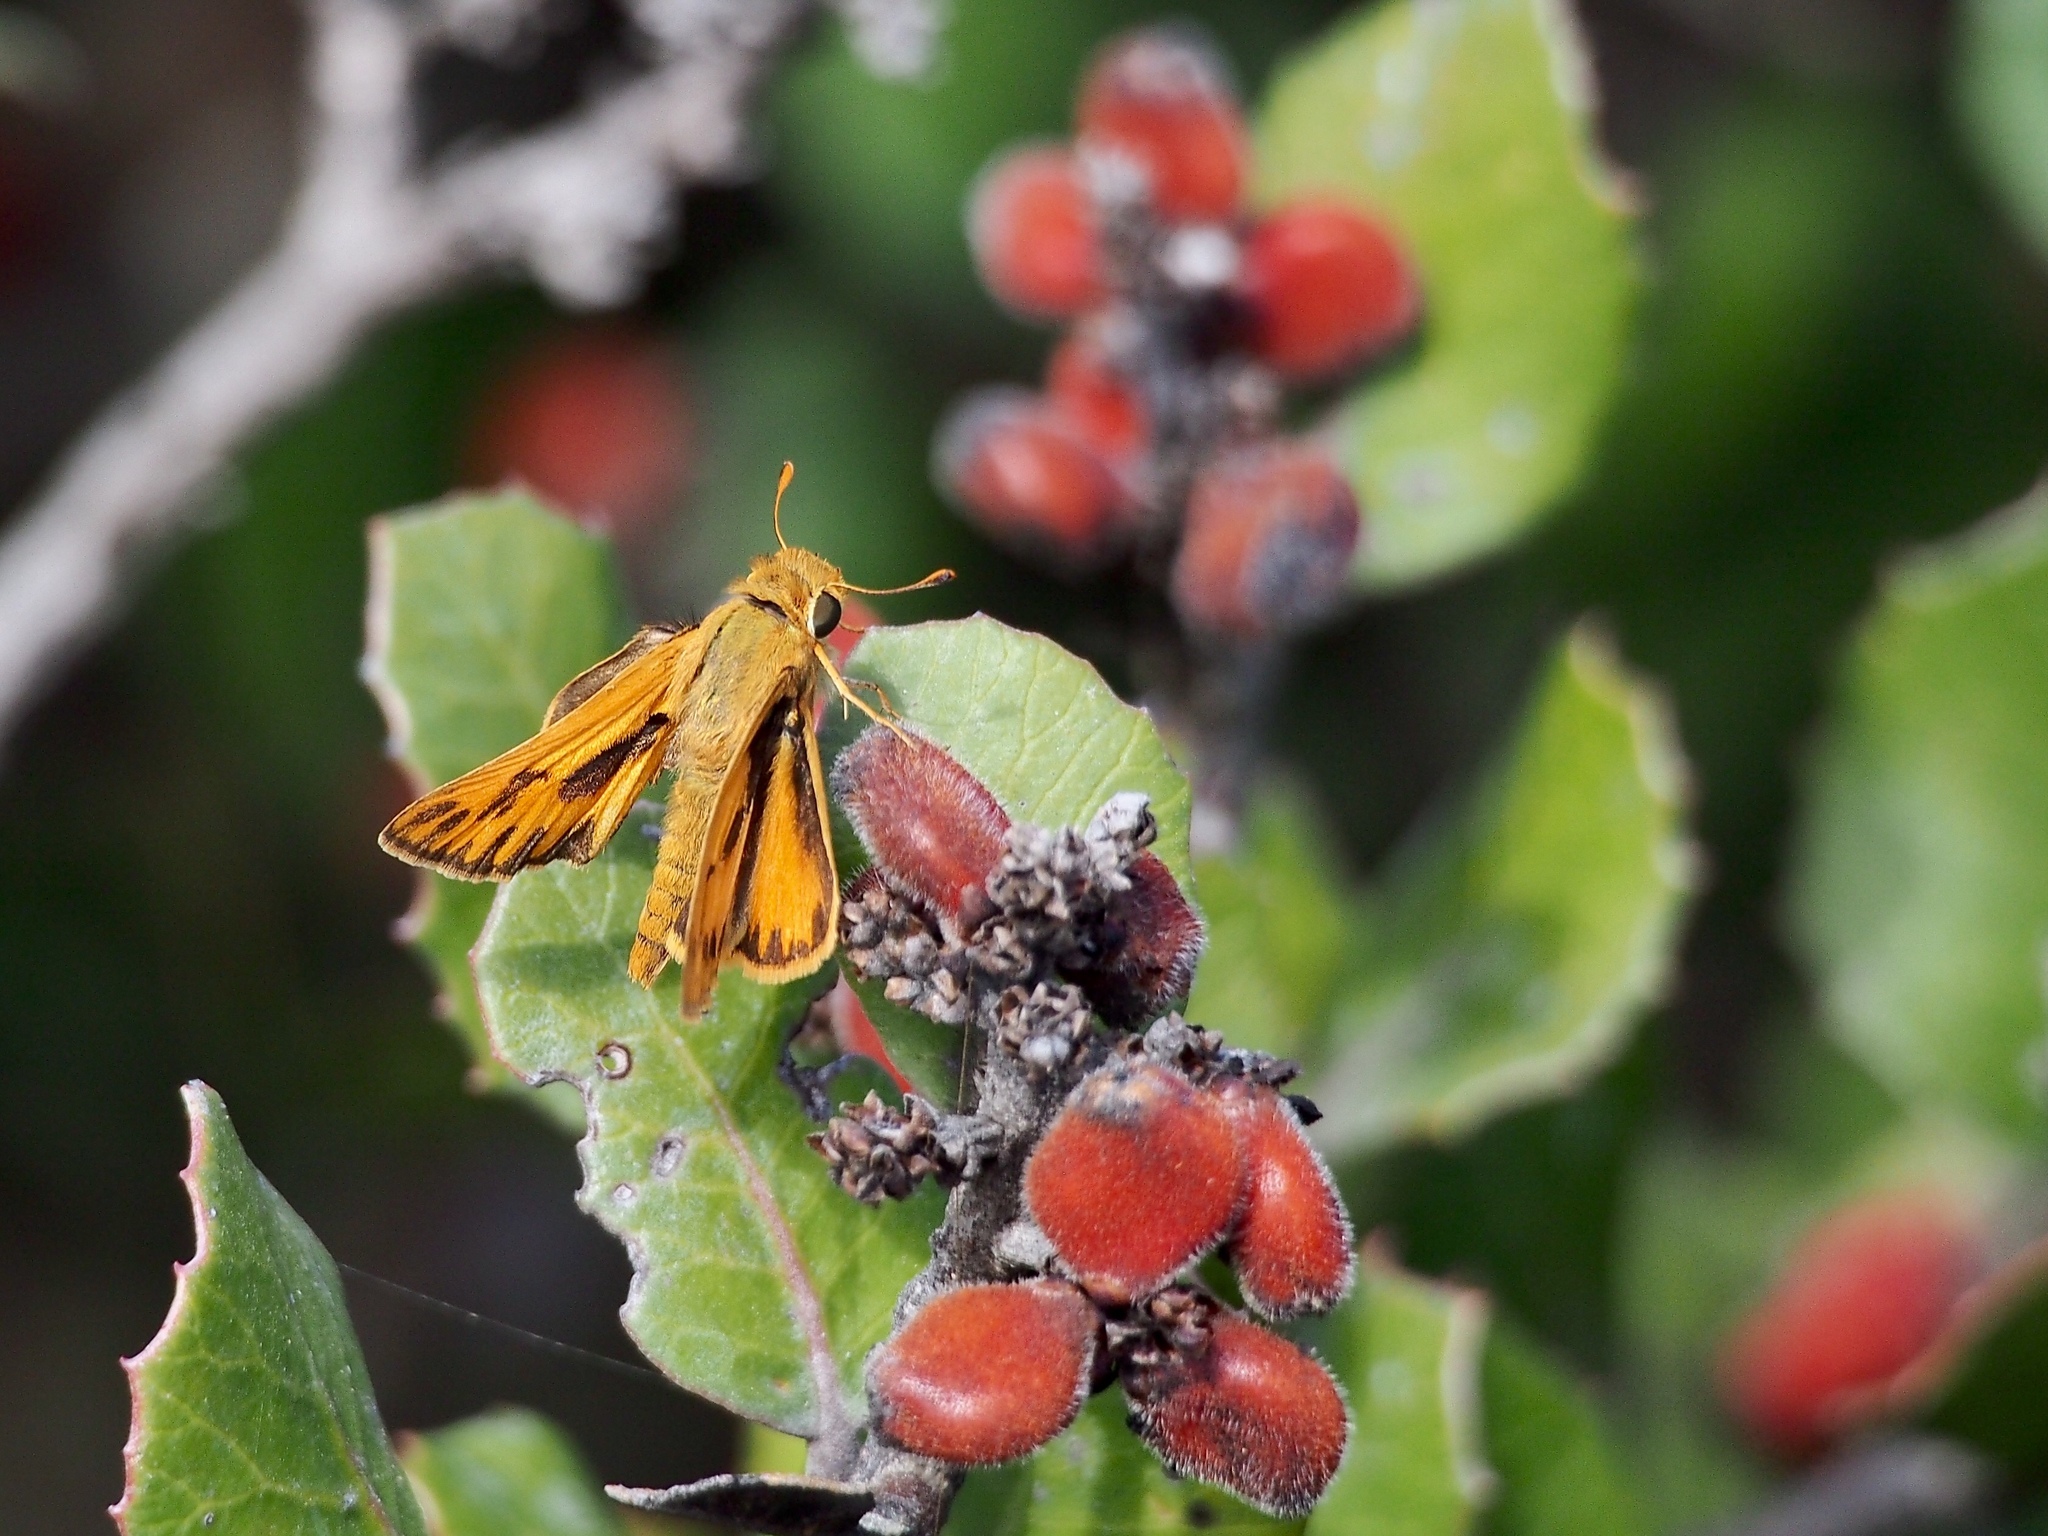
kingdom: Animalia
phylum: Arthropoda
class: Insecta
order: Lepidoptera
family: Hesperiidae
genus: Hylephila
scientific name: Hylephila phyleus
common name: Fiery skipper
